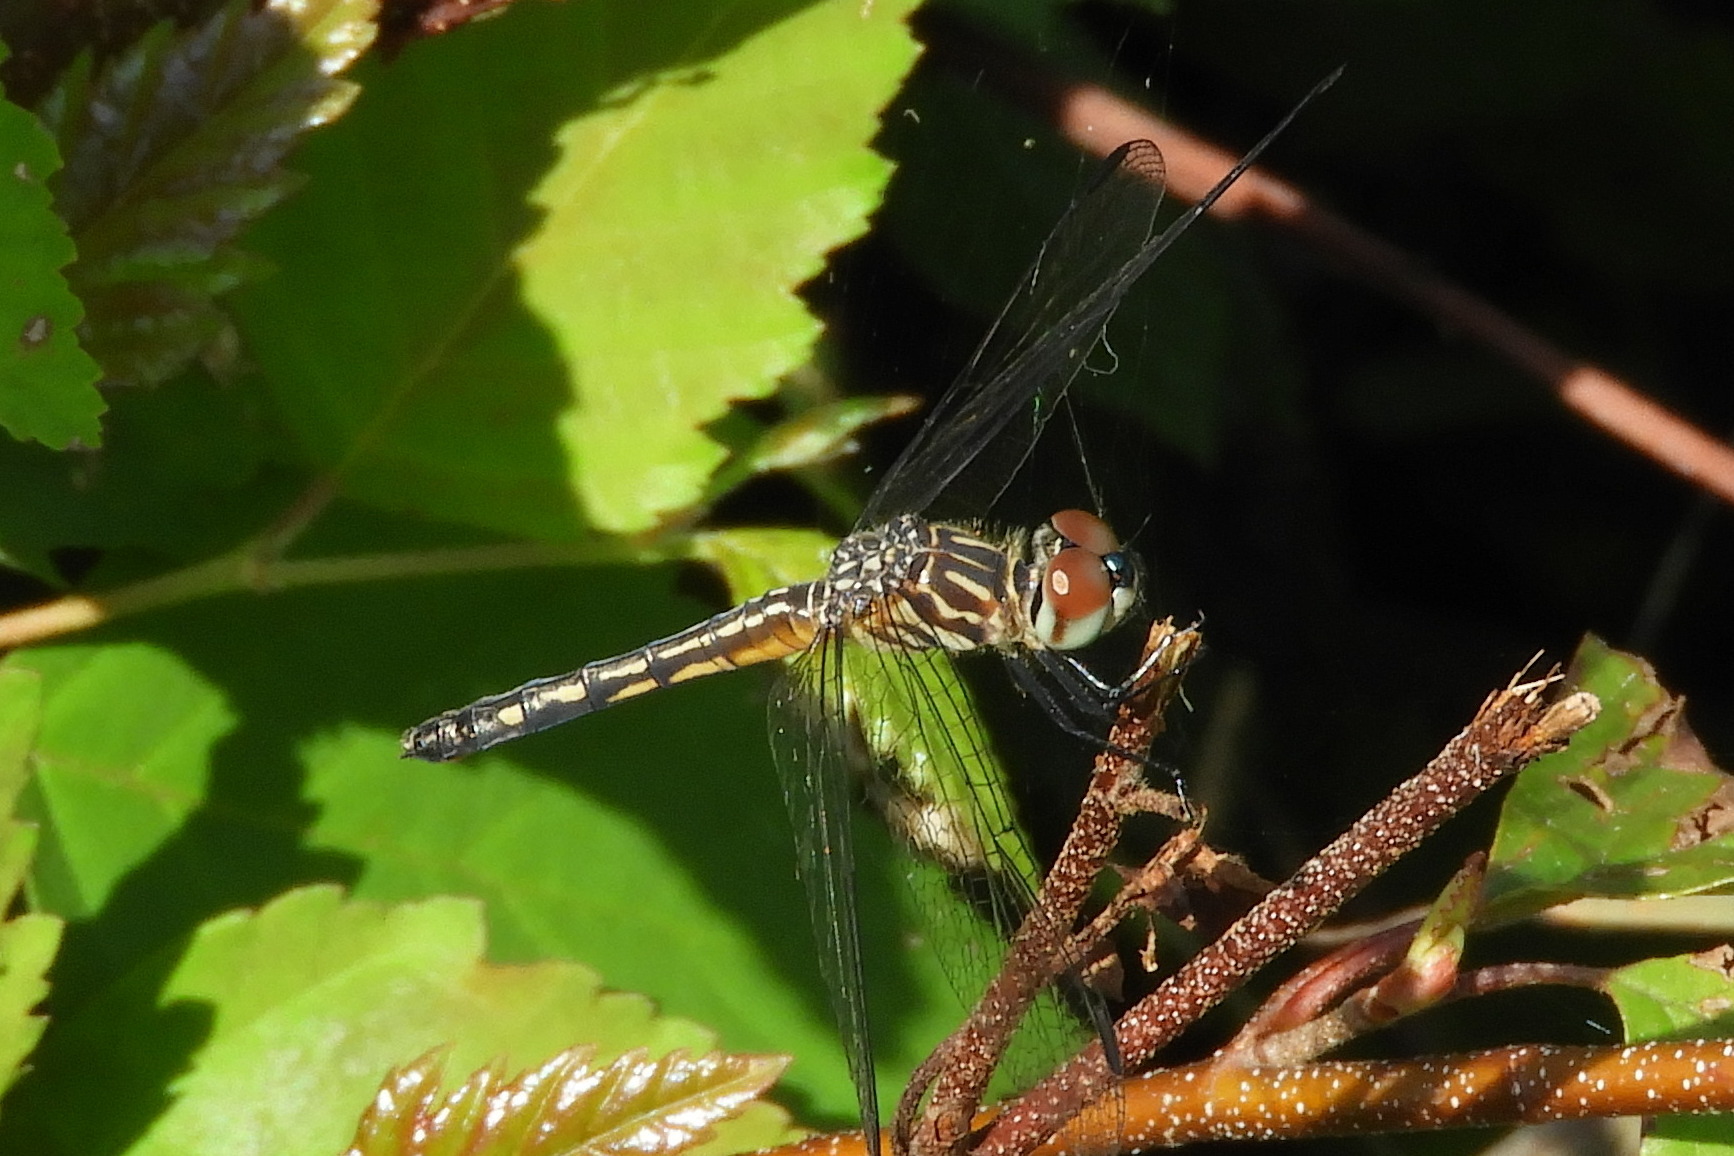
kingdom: Animalia
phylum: Arthropoda
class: Insecta
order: Odonata
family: Libellulidae
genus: Pachydiplax
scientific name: Pachydiplax longipennis
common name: Blue dasher
